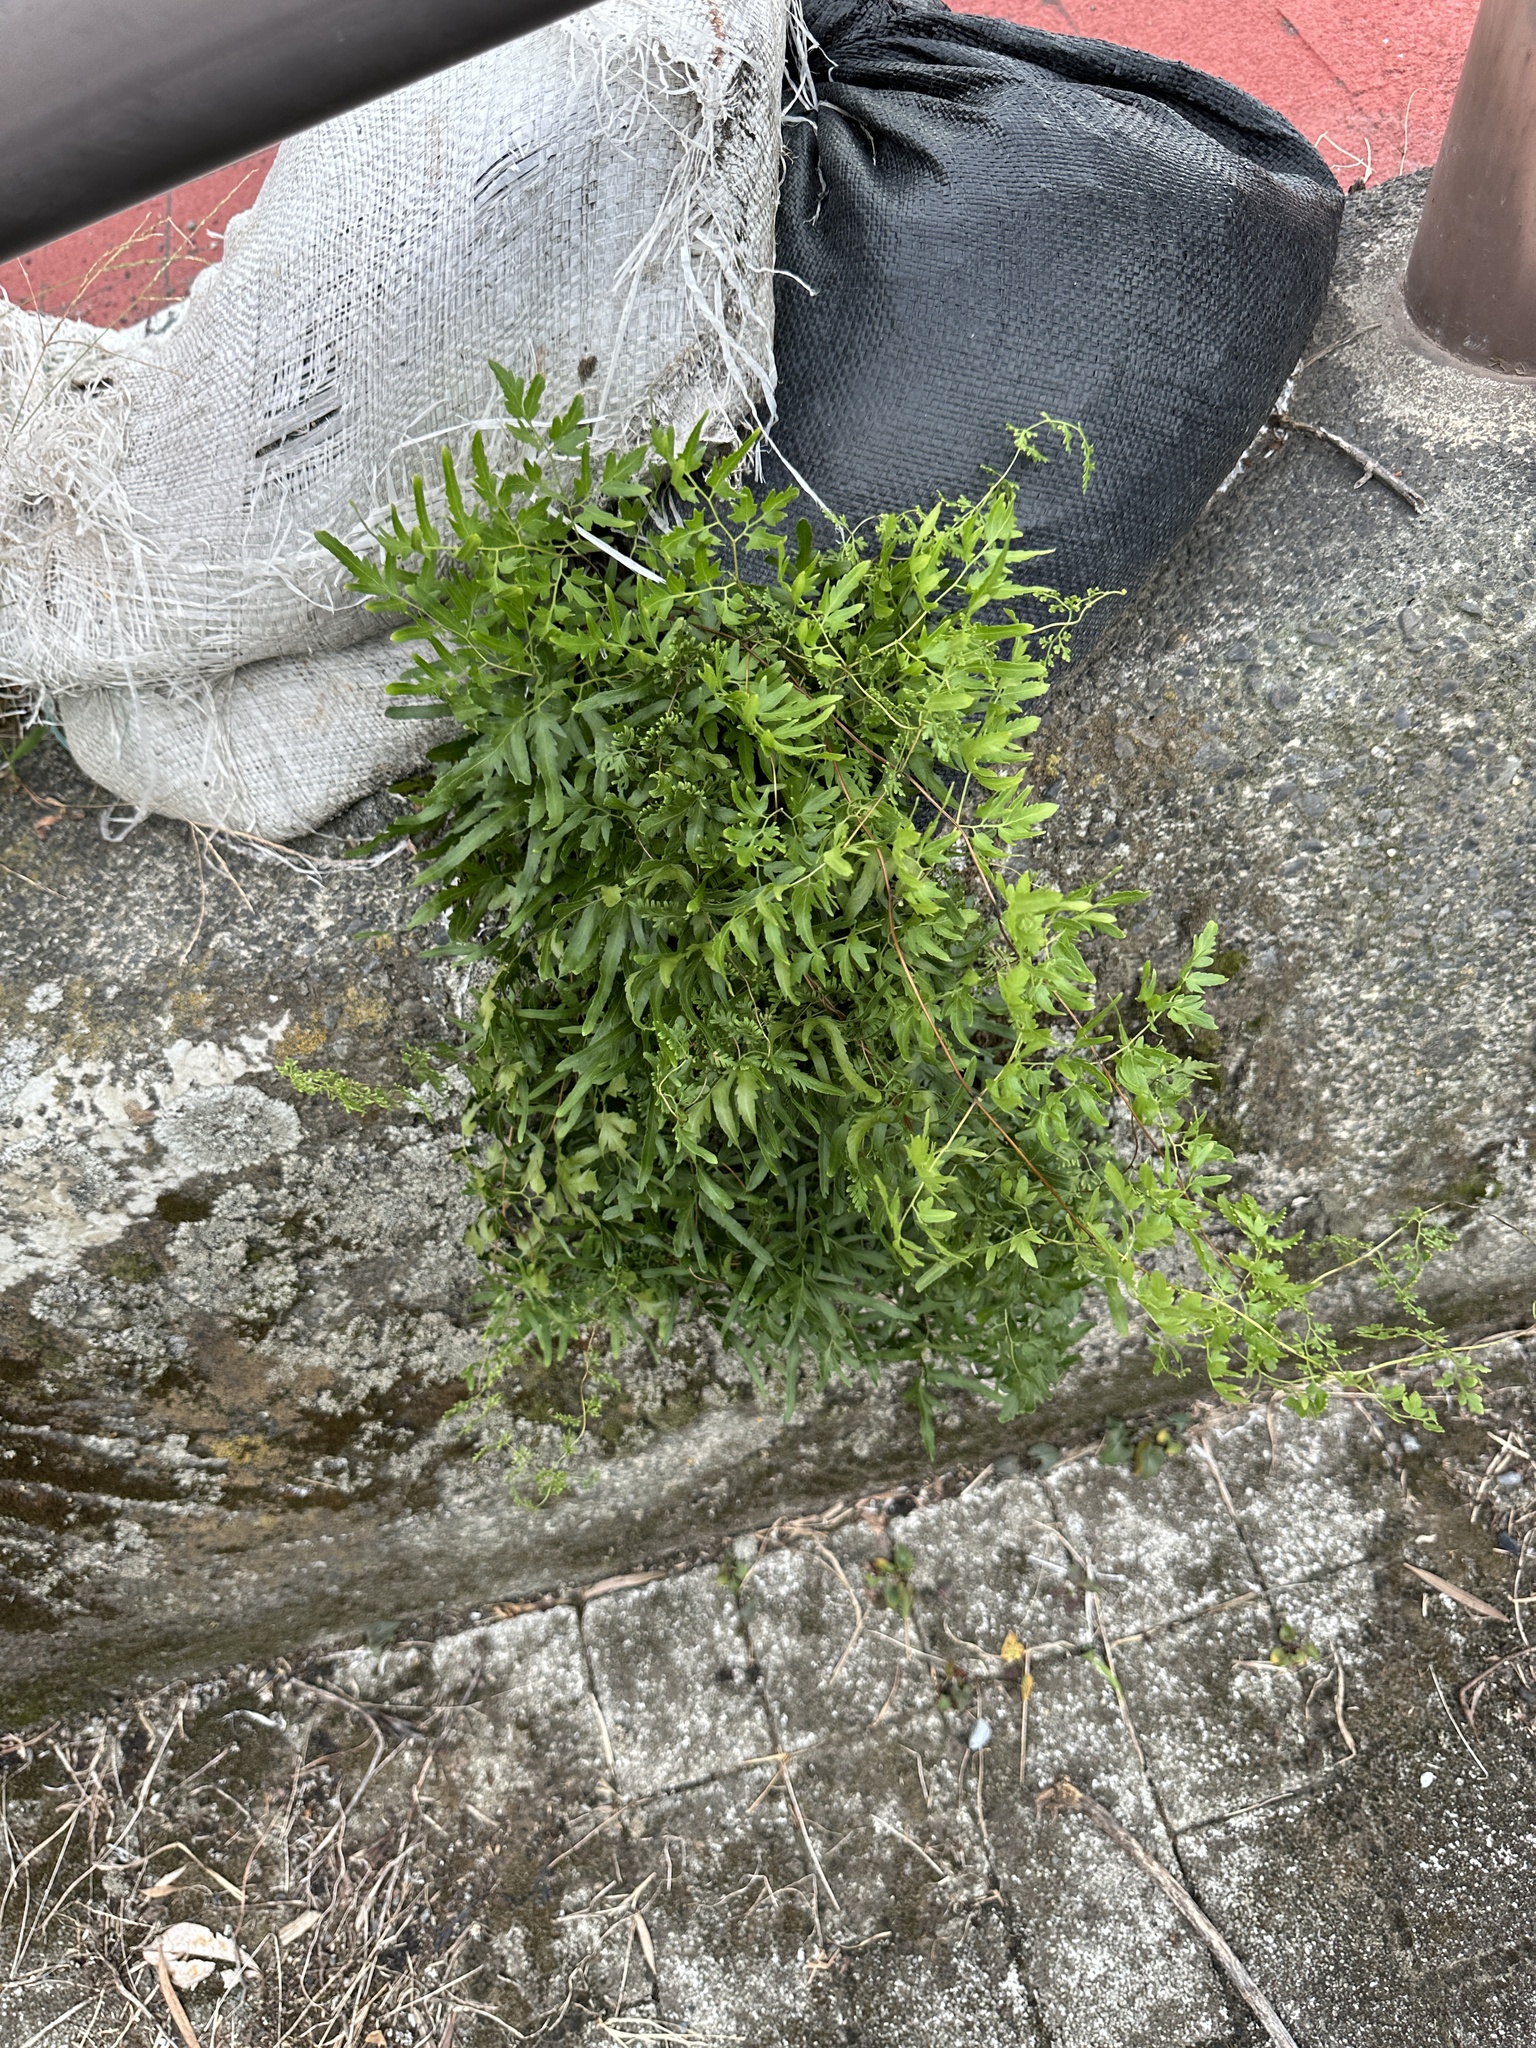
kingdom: Plantae
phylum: Tracheophyta
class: Polypodiopsida
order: Schizaeales
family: Lygodiaceae
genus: Lygodium
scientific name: Lygodium japonicum
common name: Japanese climbing fern
